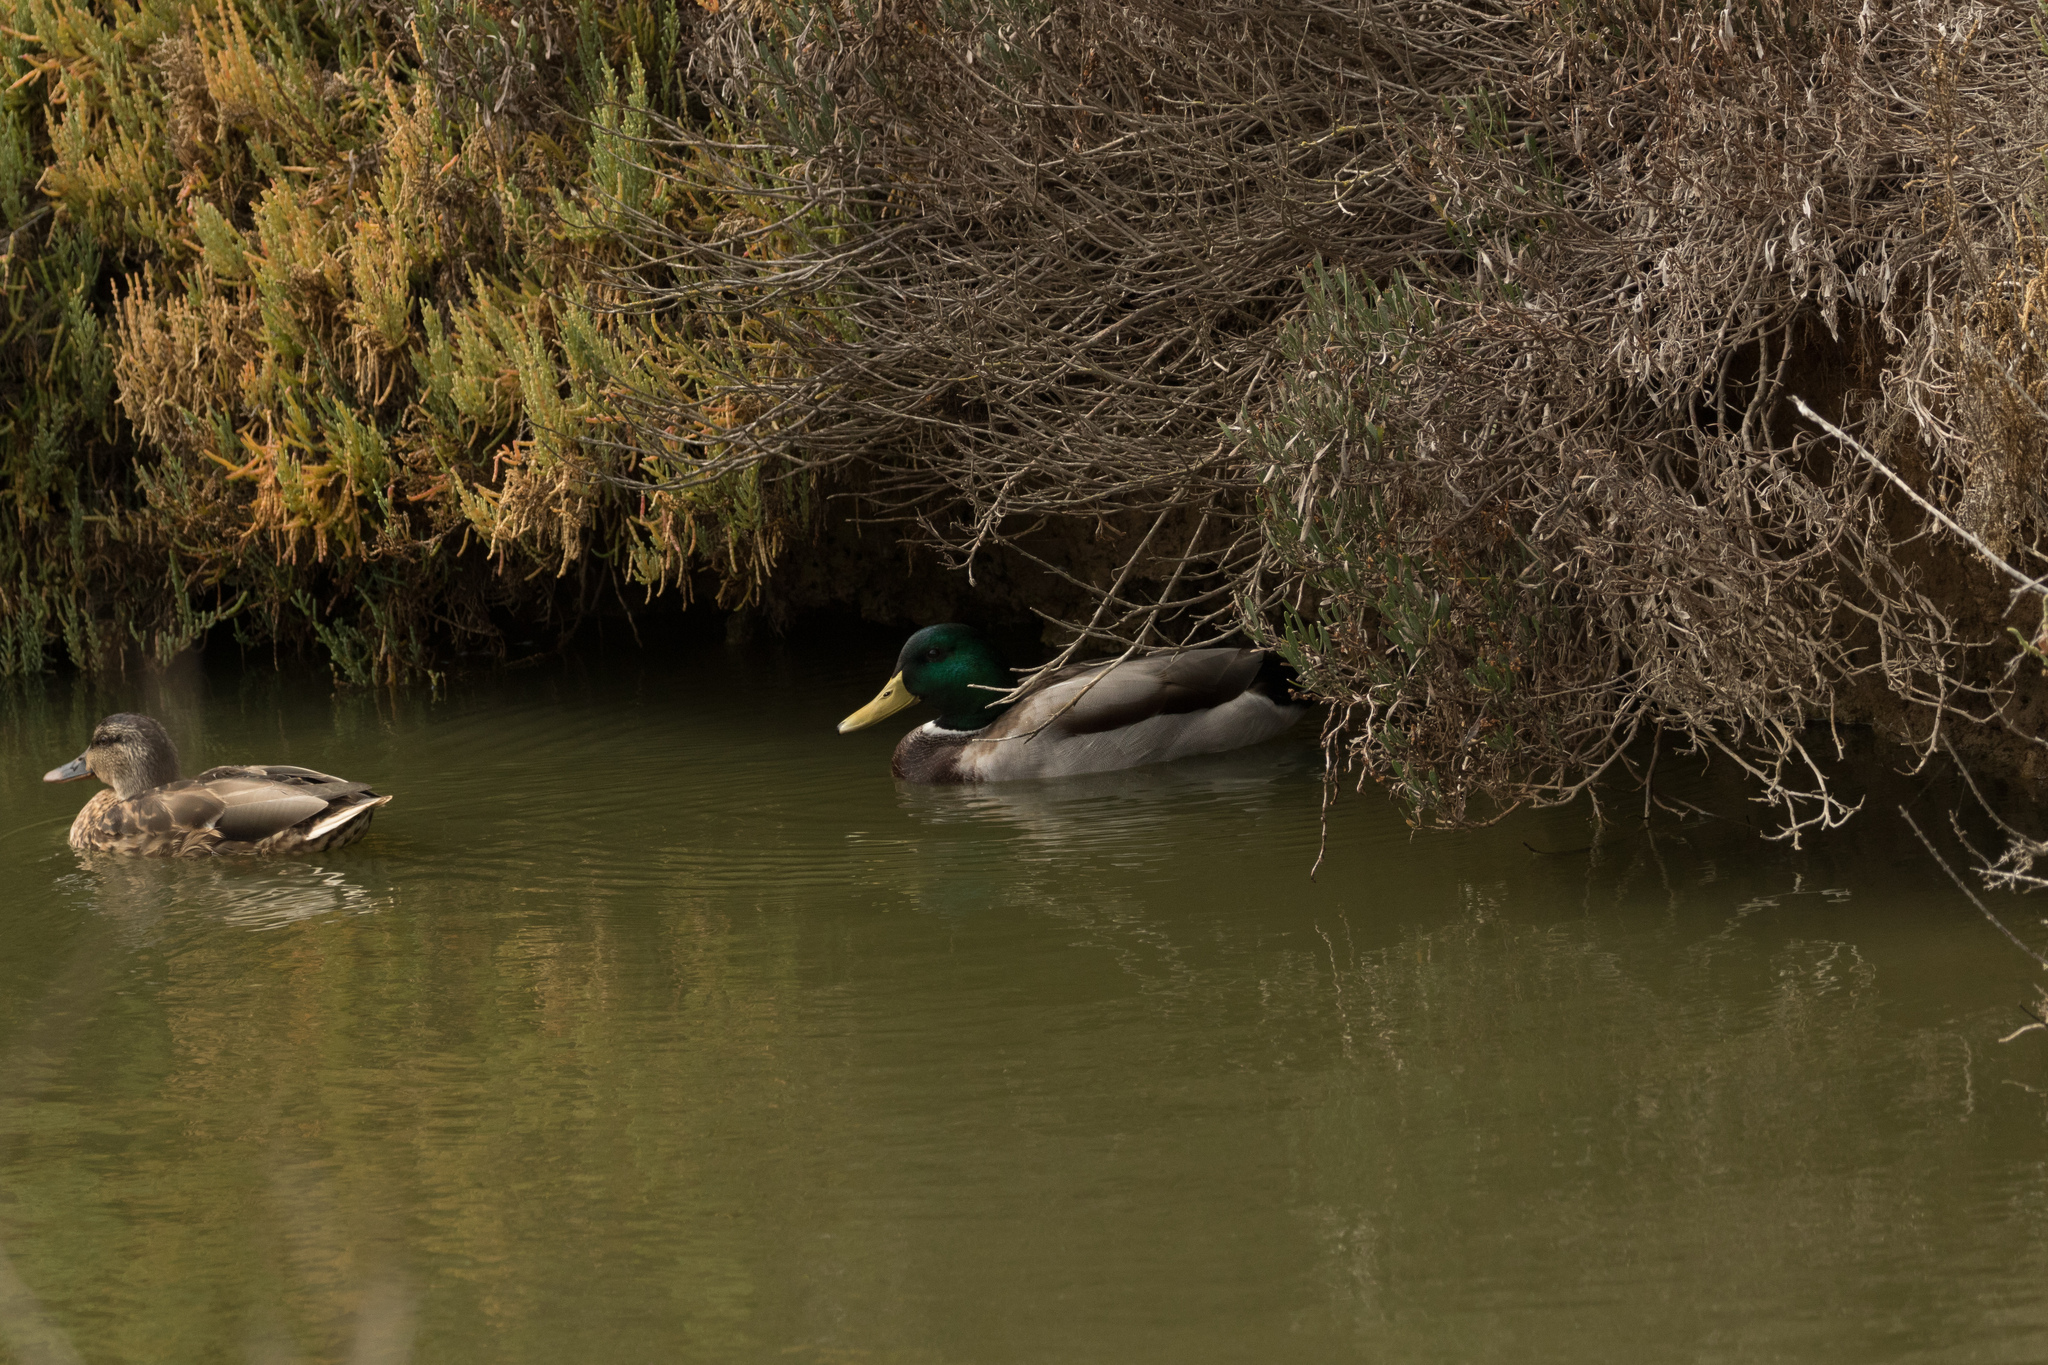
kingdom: Animalia
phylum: Chordata
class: Aves
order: Anseriformes
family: Anatidae
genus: Anas
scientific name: Anas platyrhynchos
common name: Mallard
